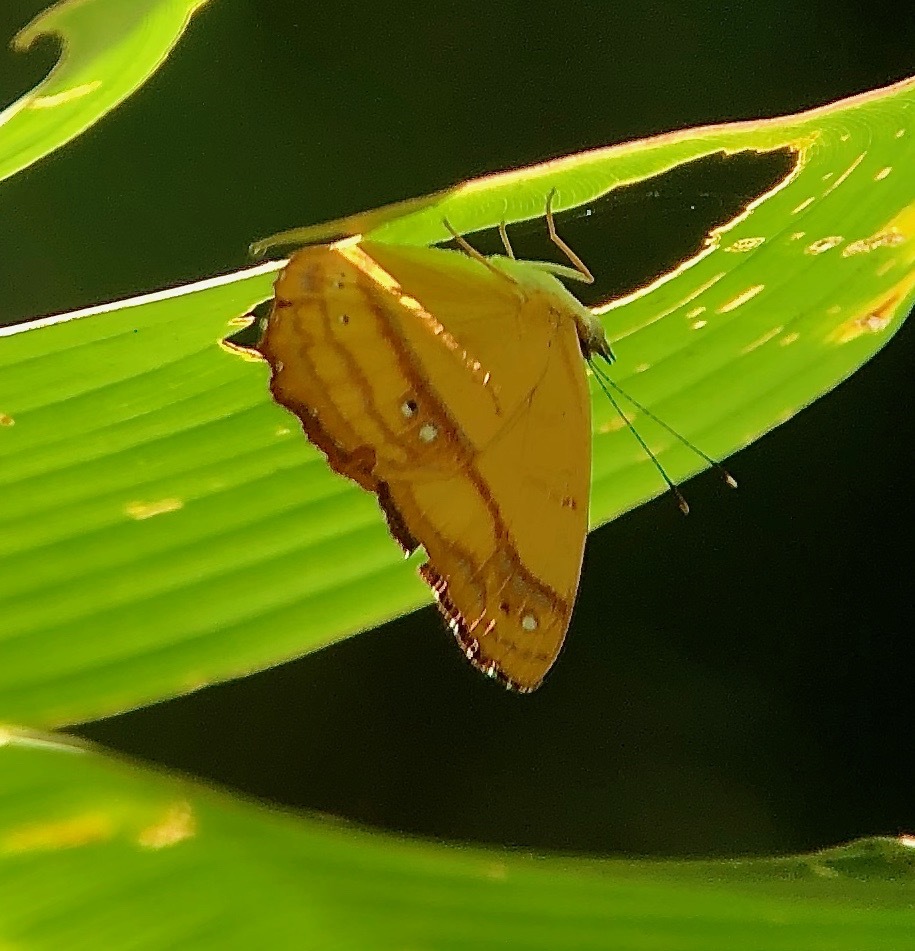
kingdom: Animalia
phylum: Arthropoda
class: Insecta
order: Lepidoptera
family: Nymphalidae
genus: Nica
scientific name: Nica flavilla
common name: Mandarin nica
